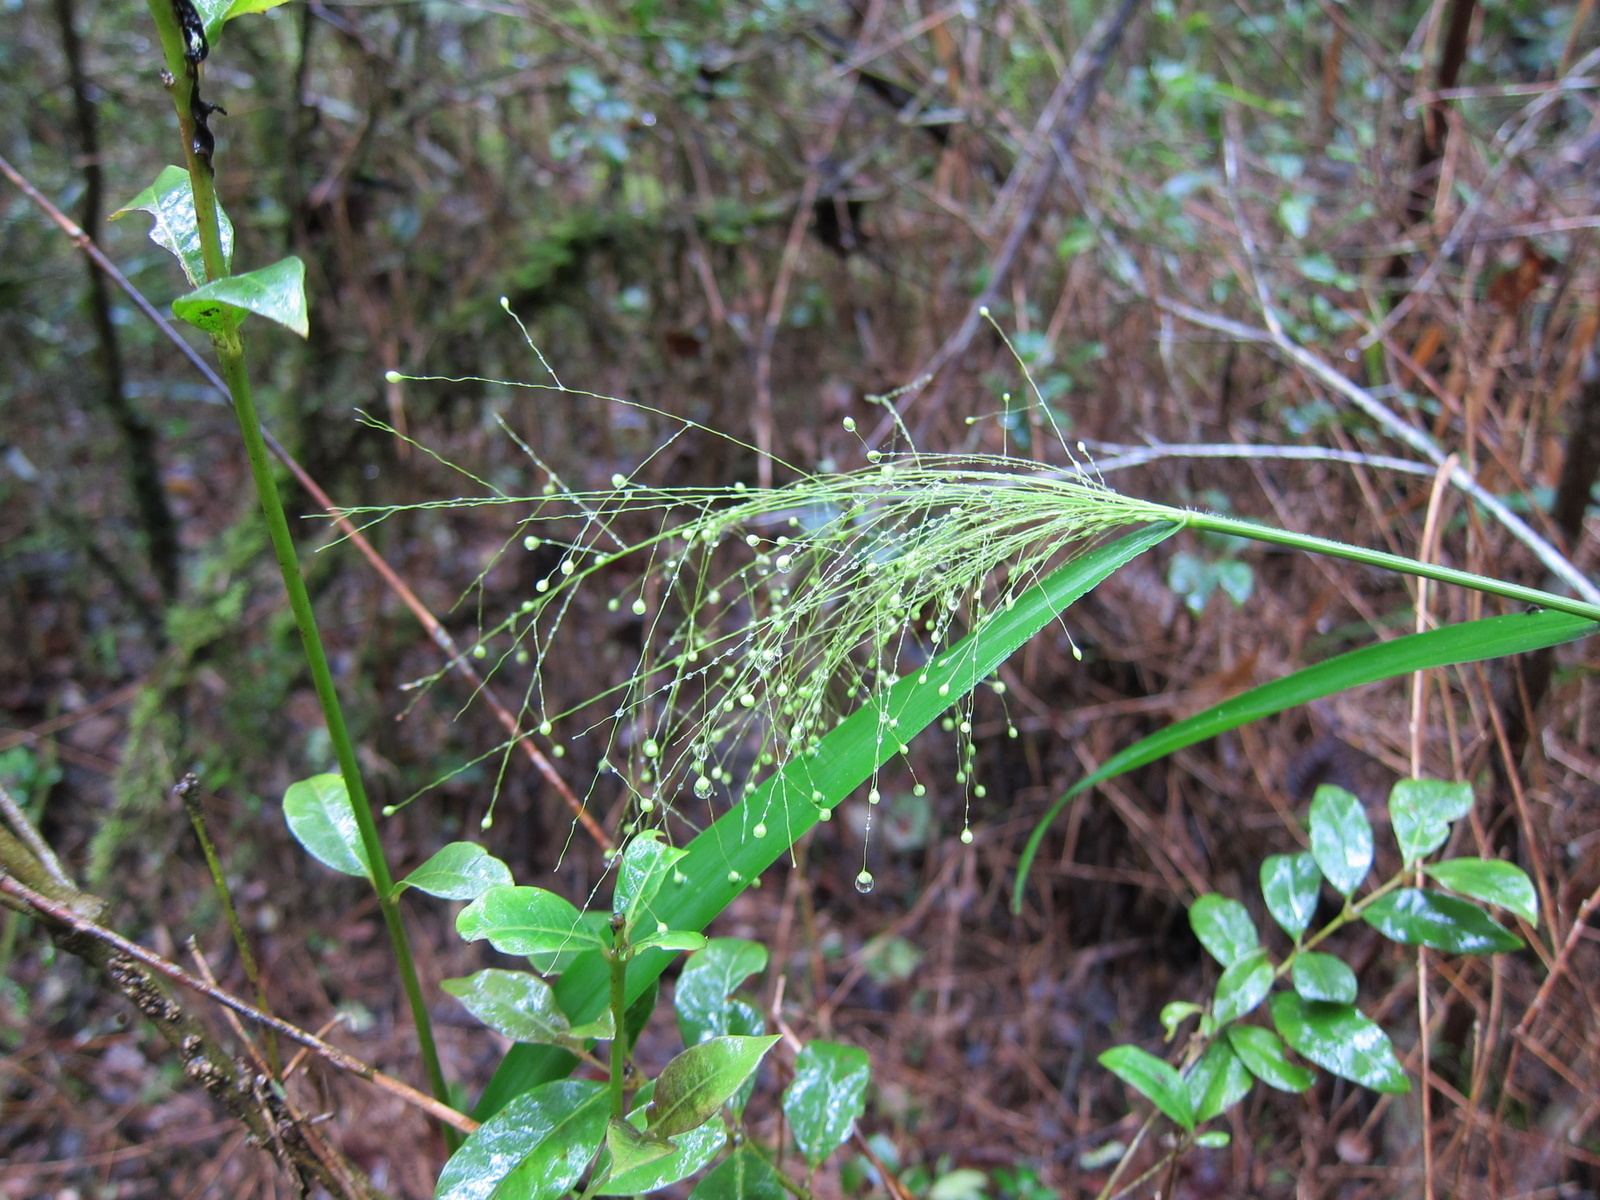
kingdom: Plantae
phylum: Tracheophyta
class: Liliopsida
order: Poales
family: Poaceae
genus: Isachne
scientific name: Isachne mauritiana
